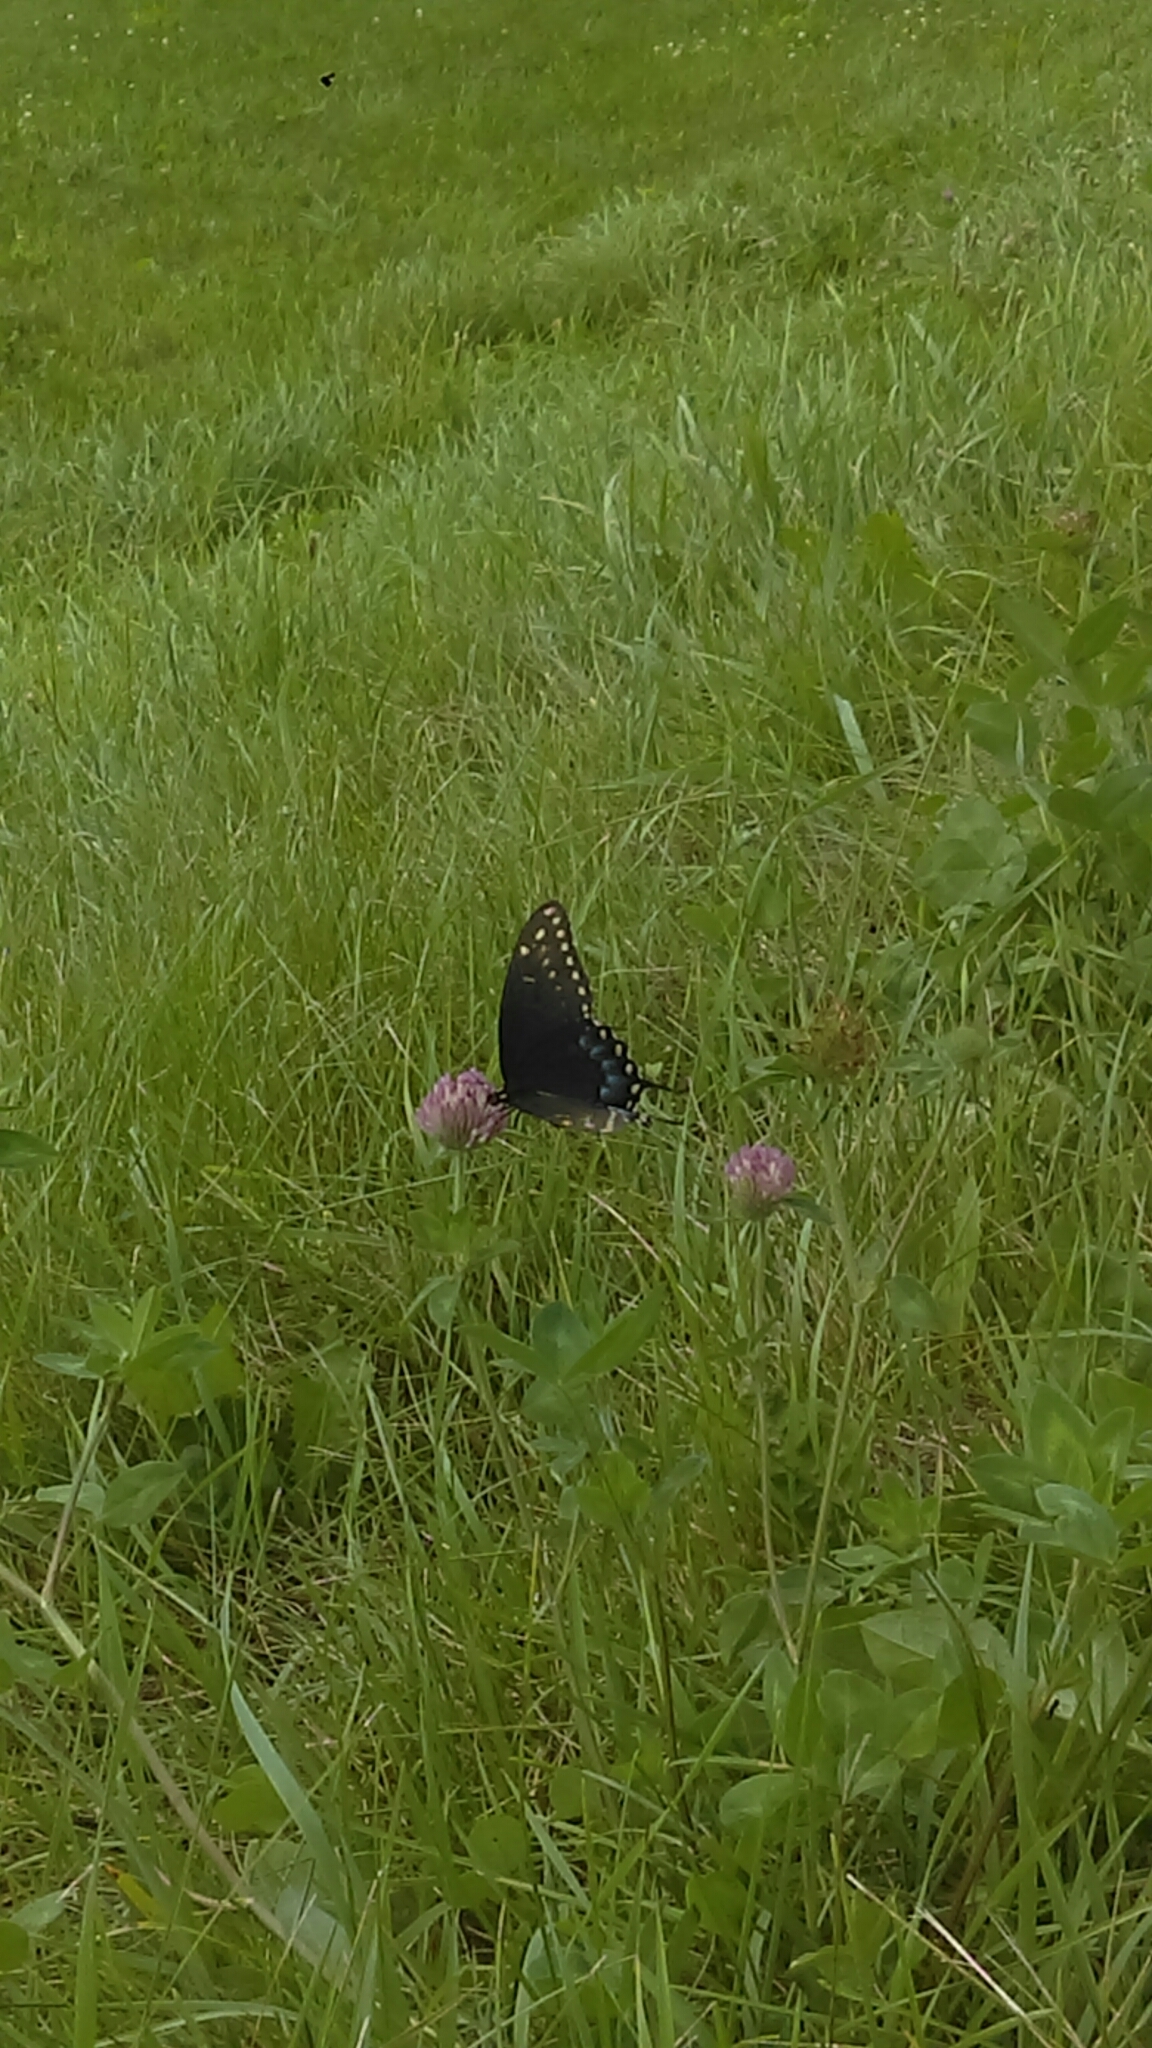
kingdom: Animalia
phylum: Arthropoda
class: Insecta
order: Lepidoptera
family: Papilionidae
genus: Papilio
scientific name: Papilio polyxenes
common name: Black swallowtail
